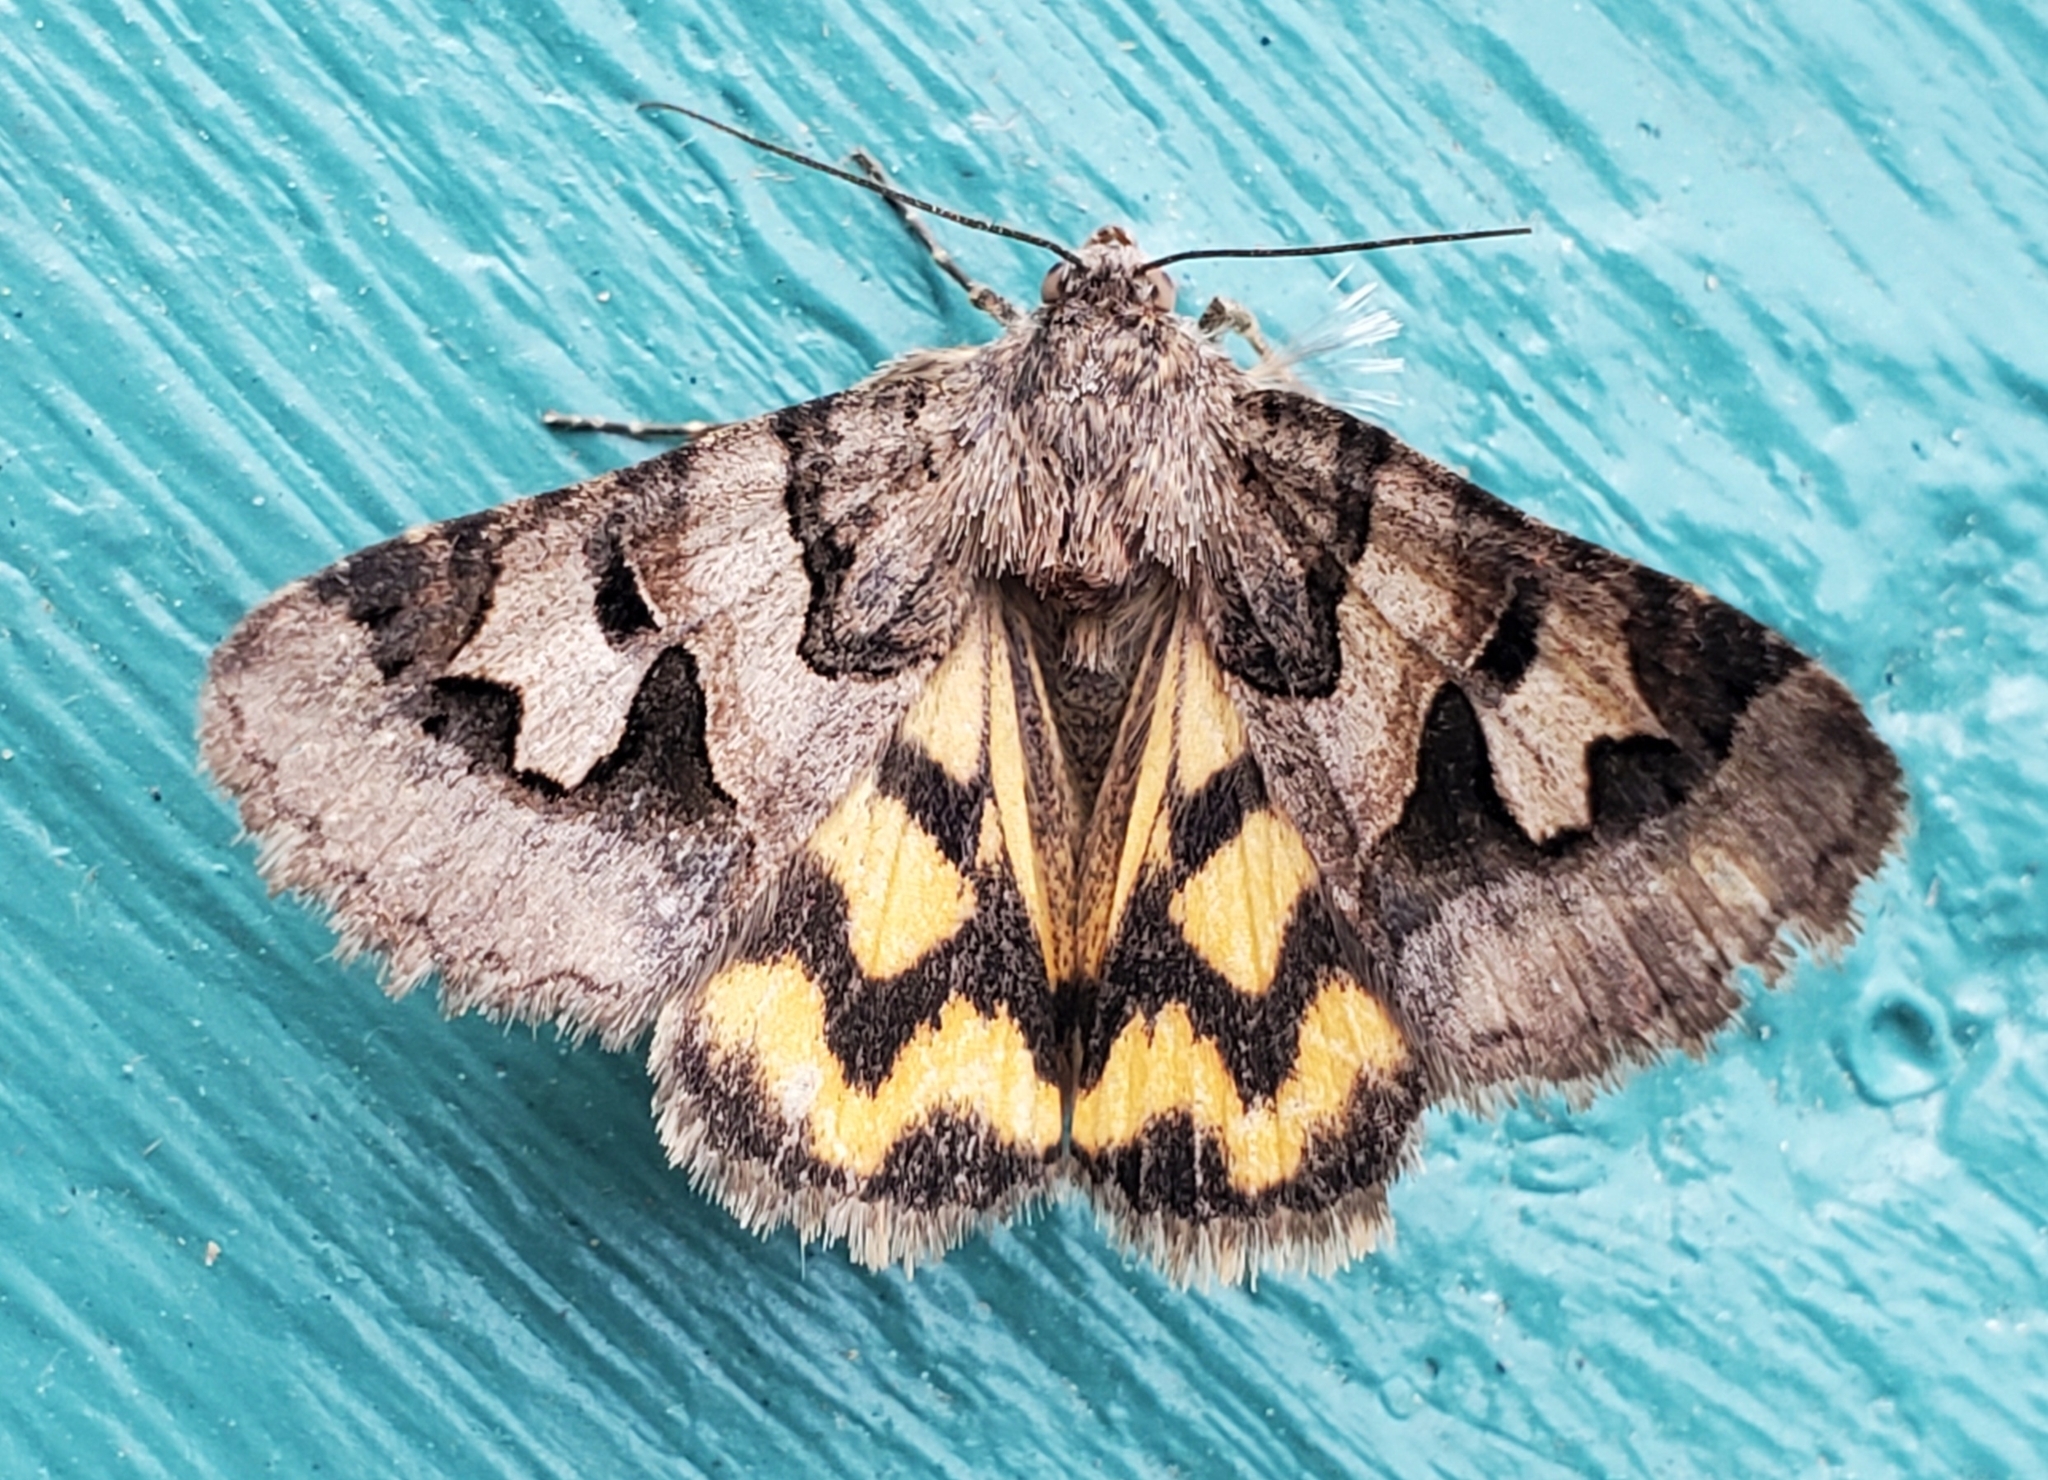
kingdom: Animalia
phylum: Arthropoda
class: Insecta
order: Lepidoptera
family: Erebidae
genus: Drasteria
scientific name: Drasteria adumbrata
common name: Shadowy arches
